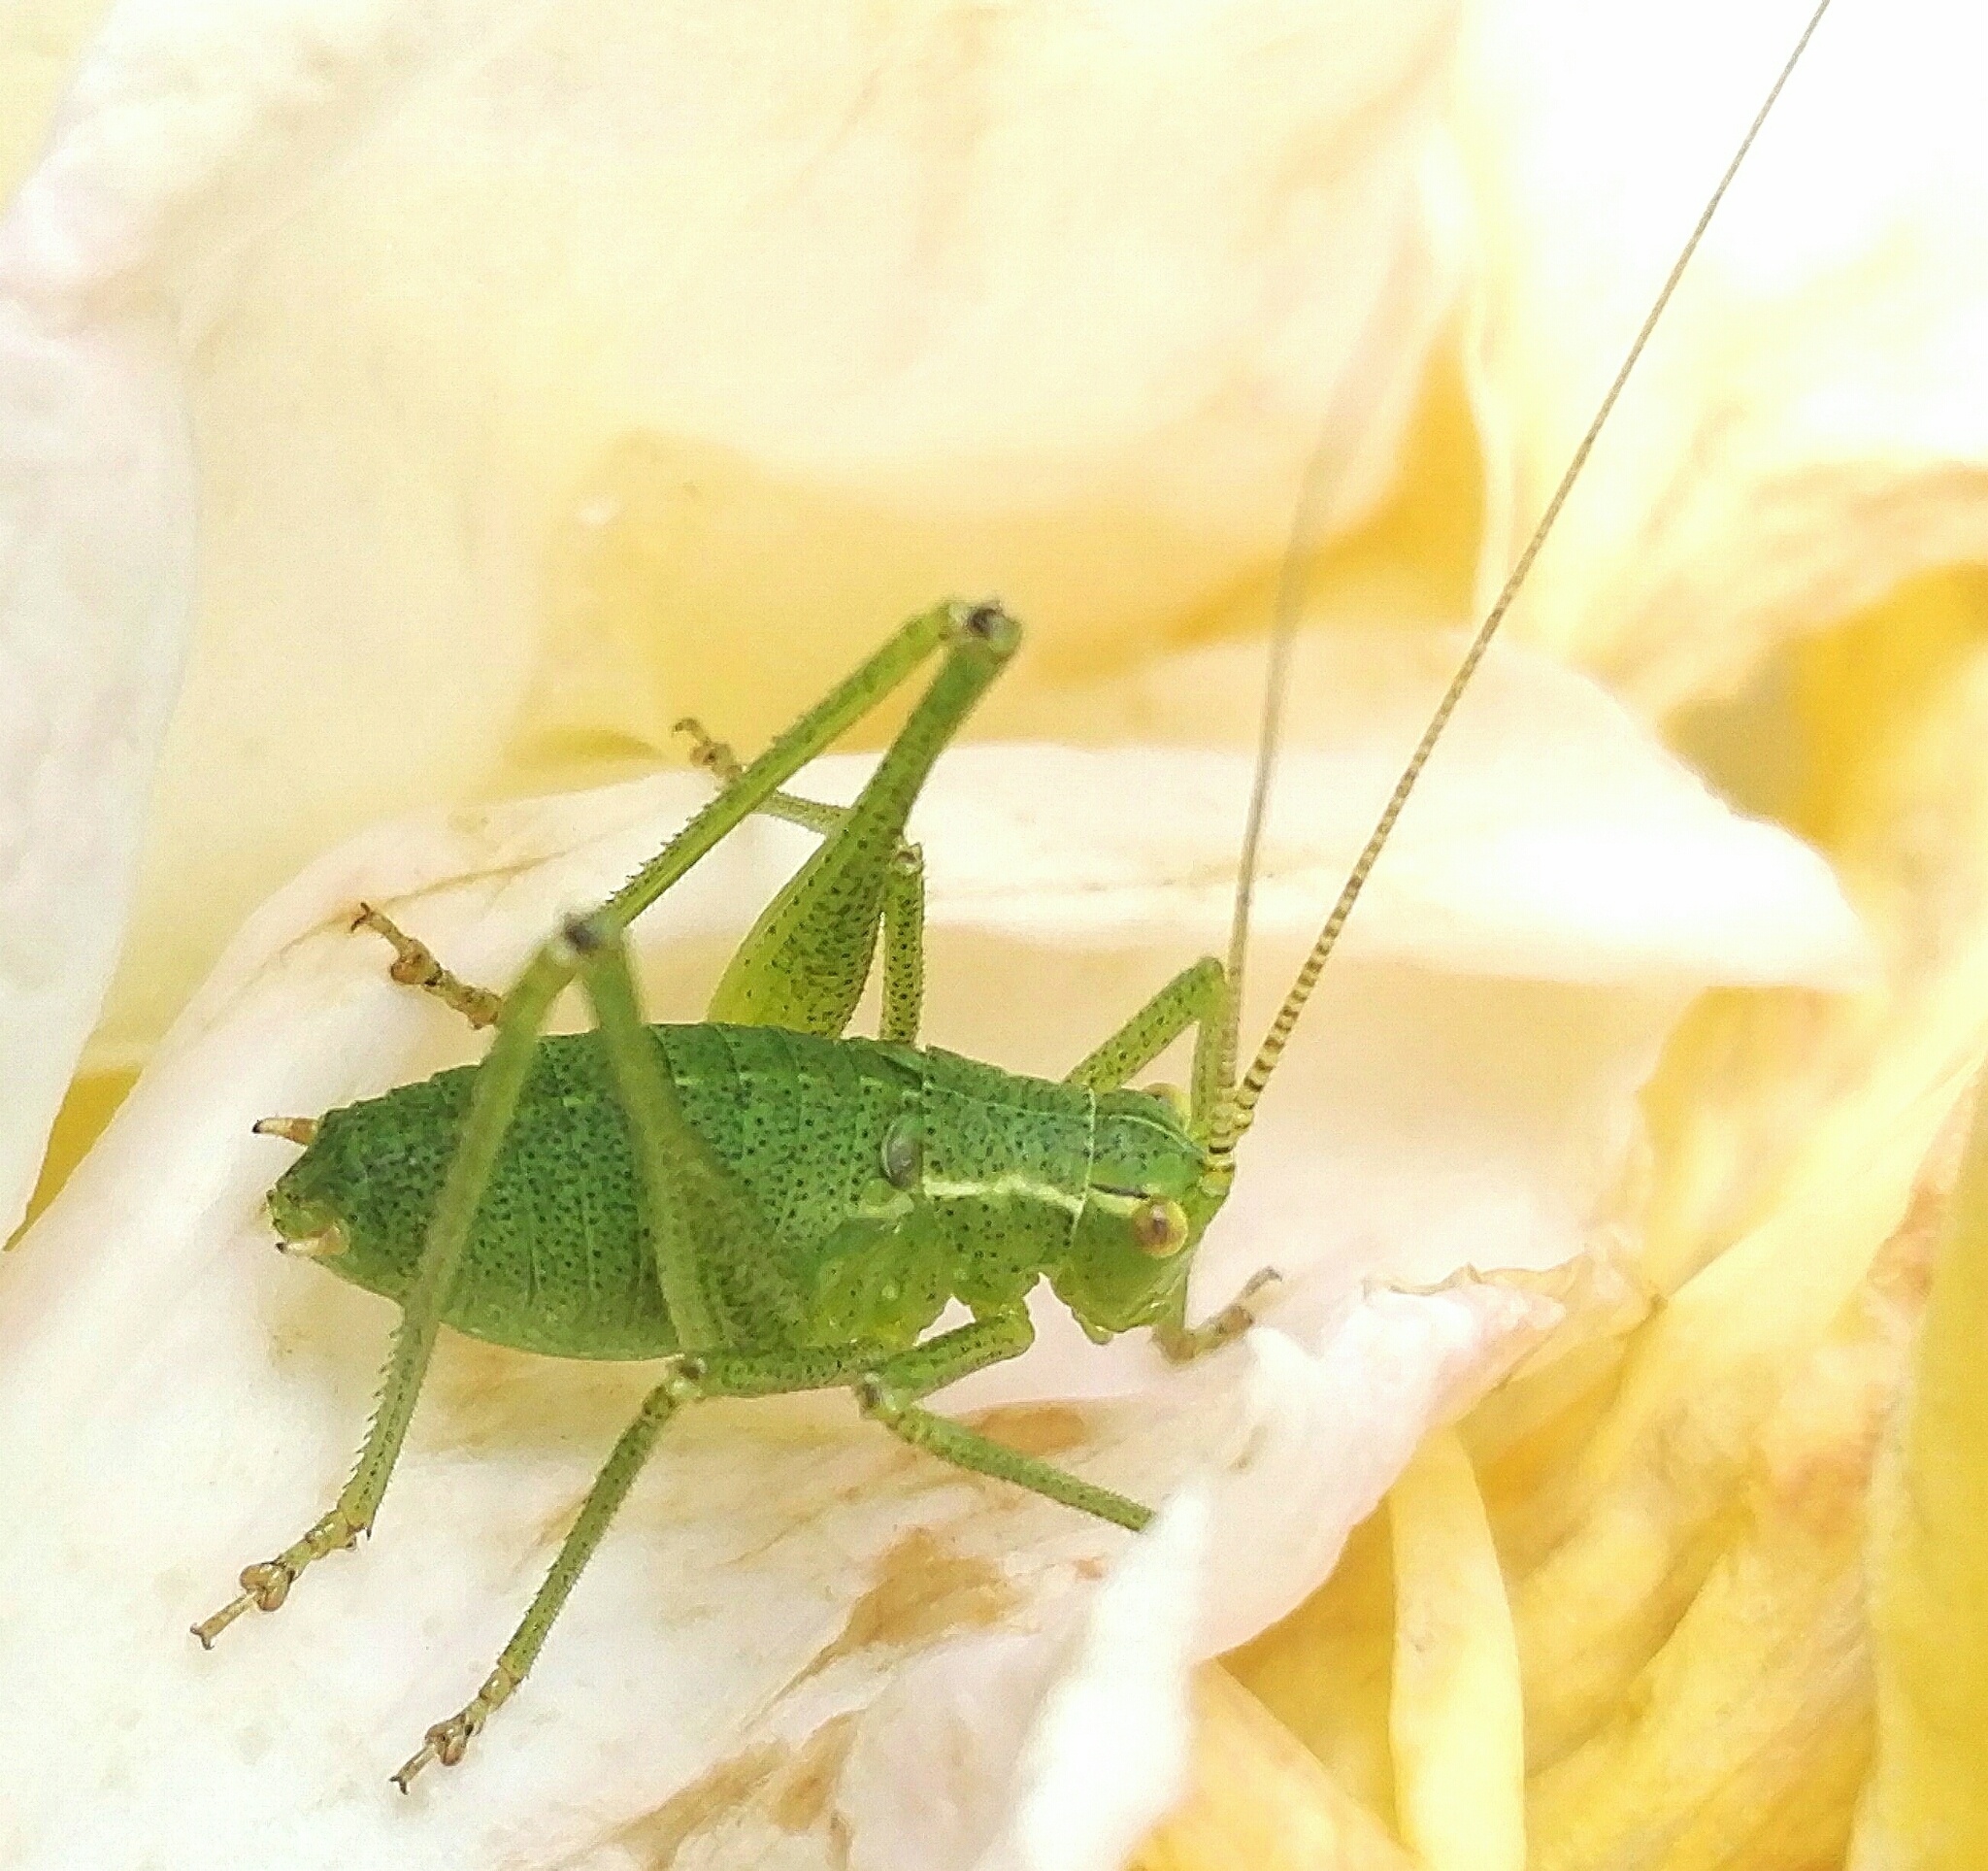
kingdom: Animalia
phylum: Arthropoda
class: Insecta
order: Orthoptera
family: Tettigoniidae
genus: Leptophyes
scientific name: Leptophyes punctatissima
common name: Speckled bush-cricket
